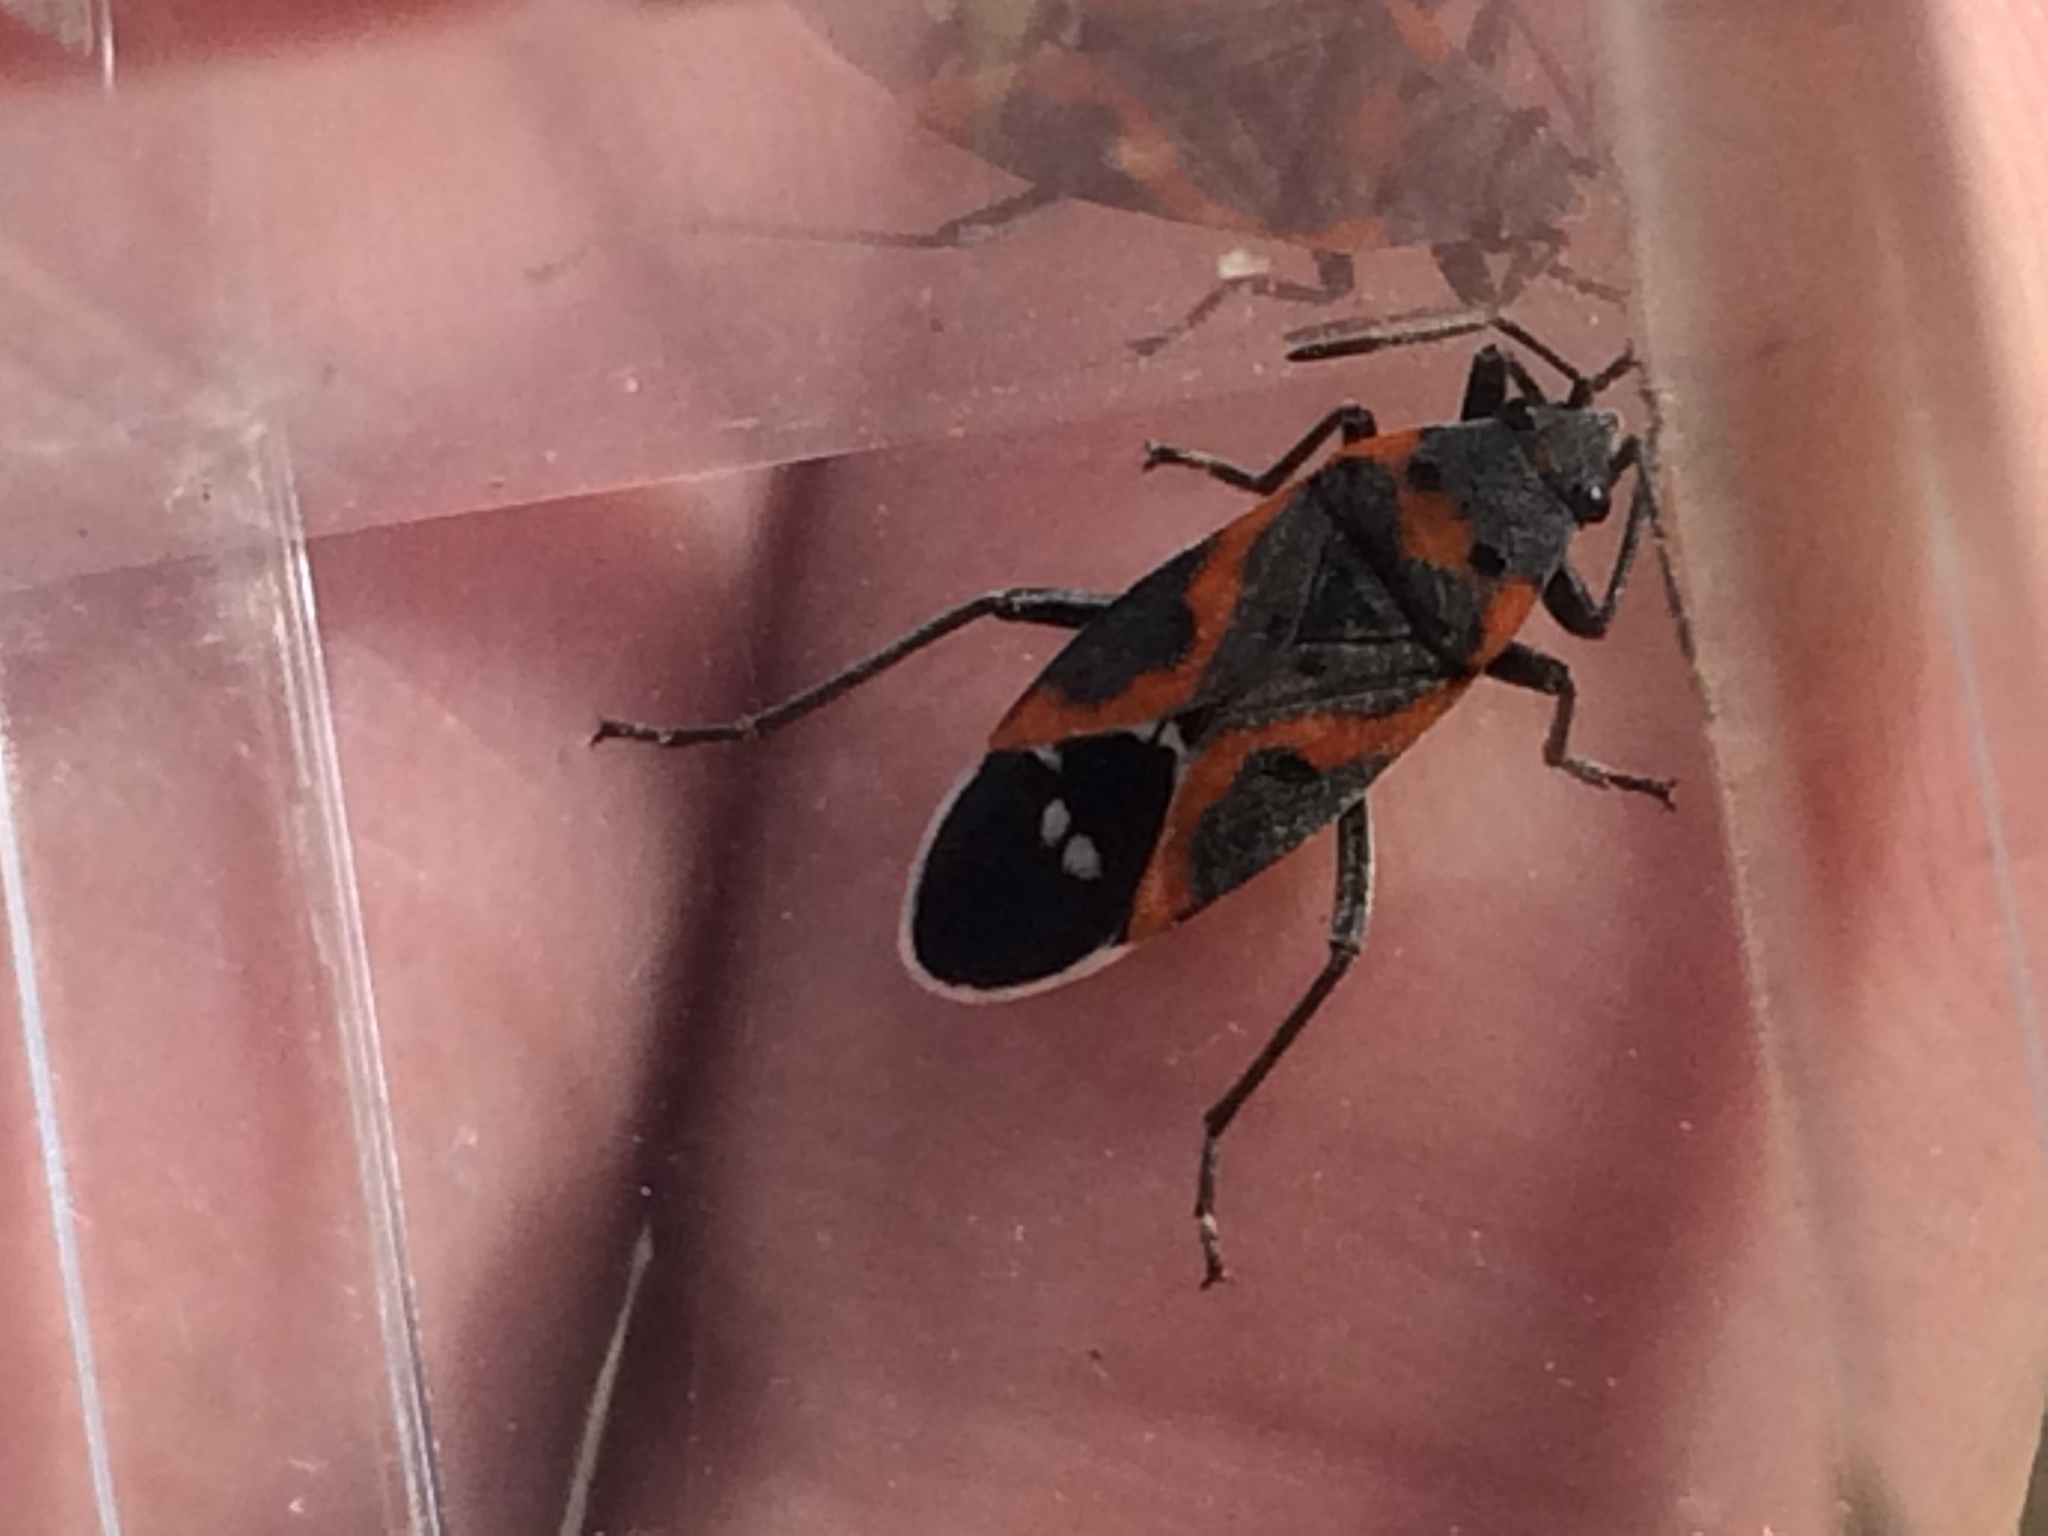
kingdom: Animalia
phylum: Arthropoda
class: Insecta
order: Hemiptera
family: Lygaeidae
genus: Lygaeus
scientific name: Lygaeus kalmii
